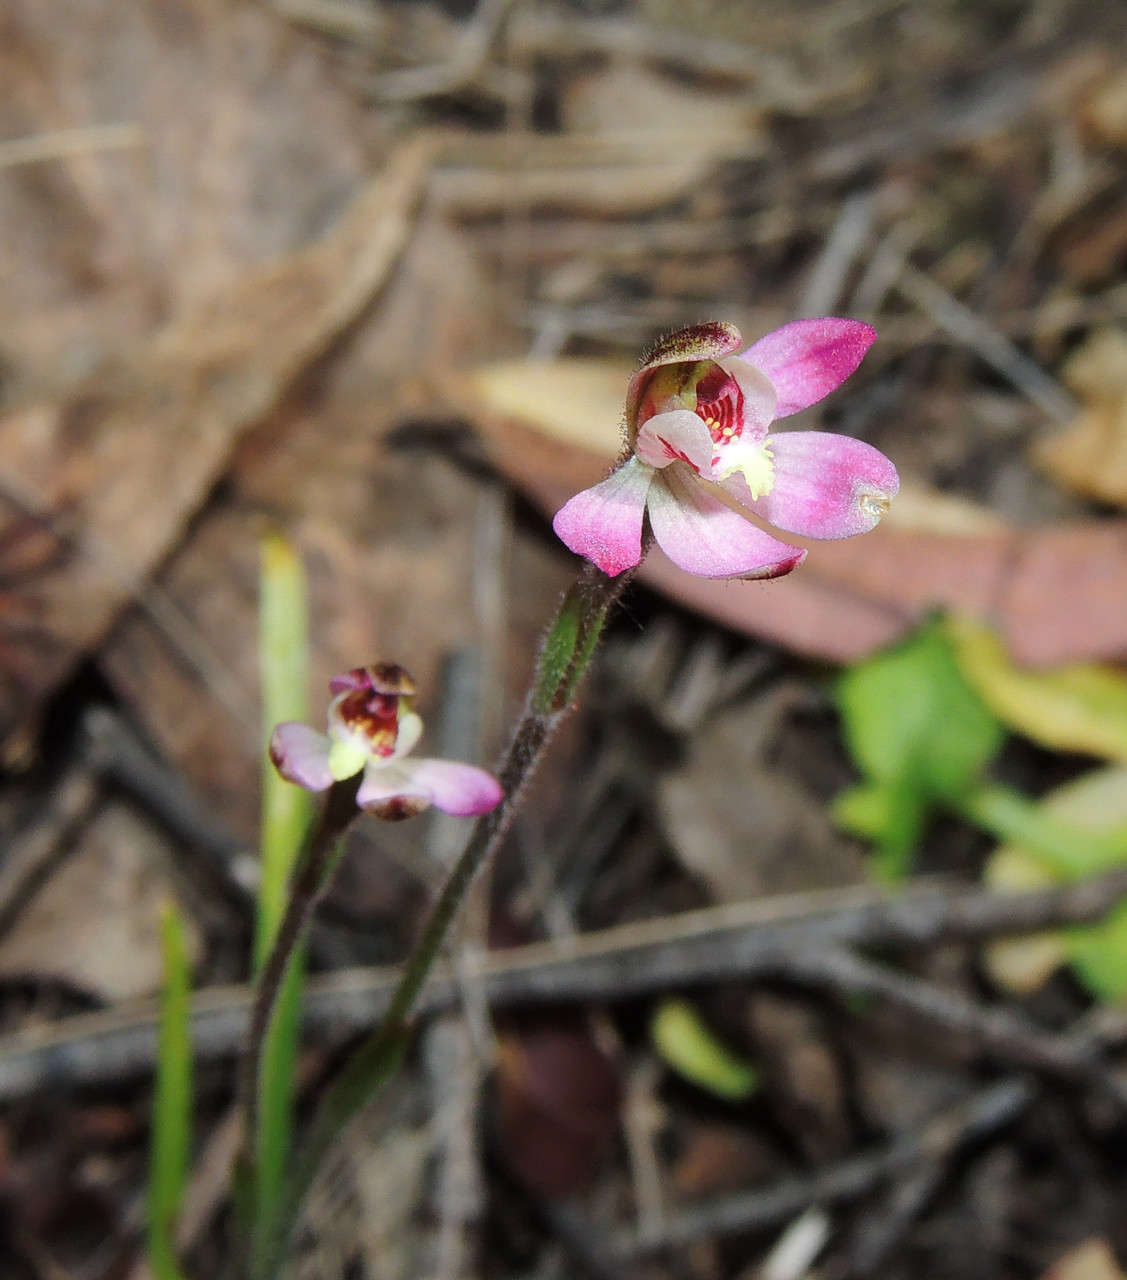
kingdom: Plantae
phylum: Tracheophyta
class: Liliopsida
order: Asparagales
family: Orchidaceae
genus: Caladenia
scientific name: Caladenia pusilla
